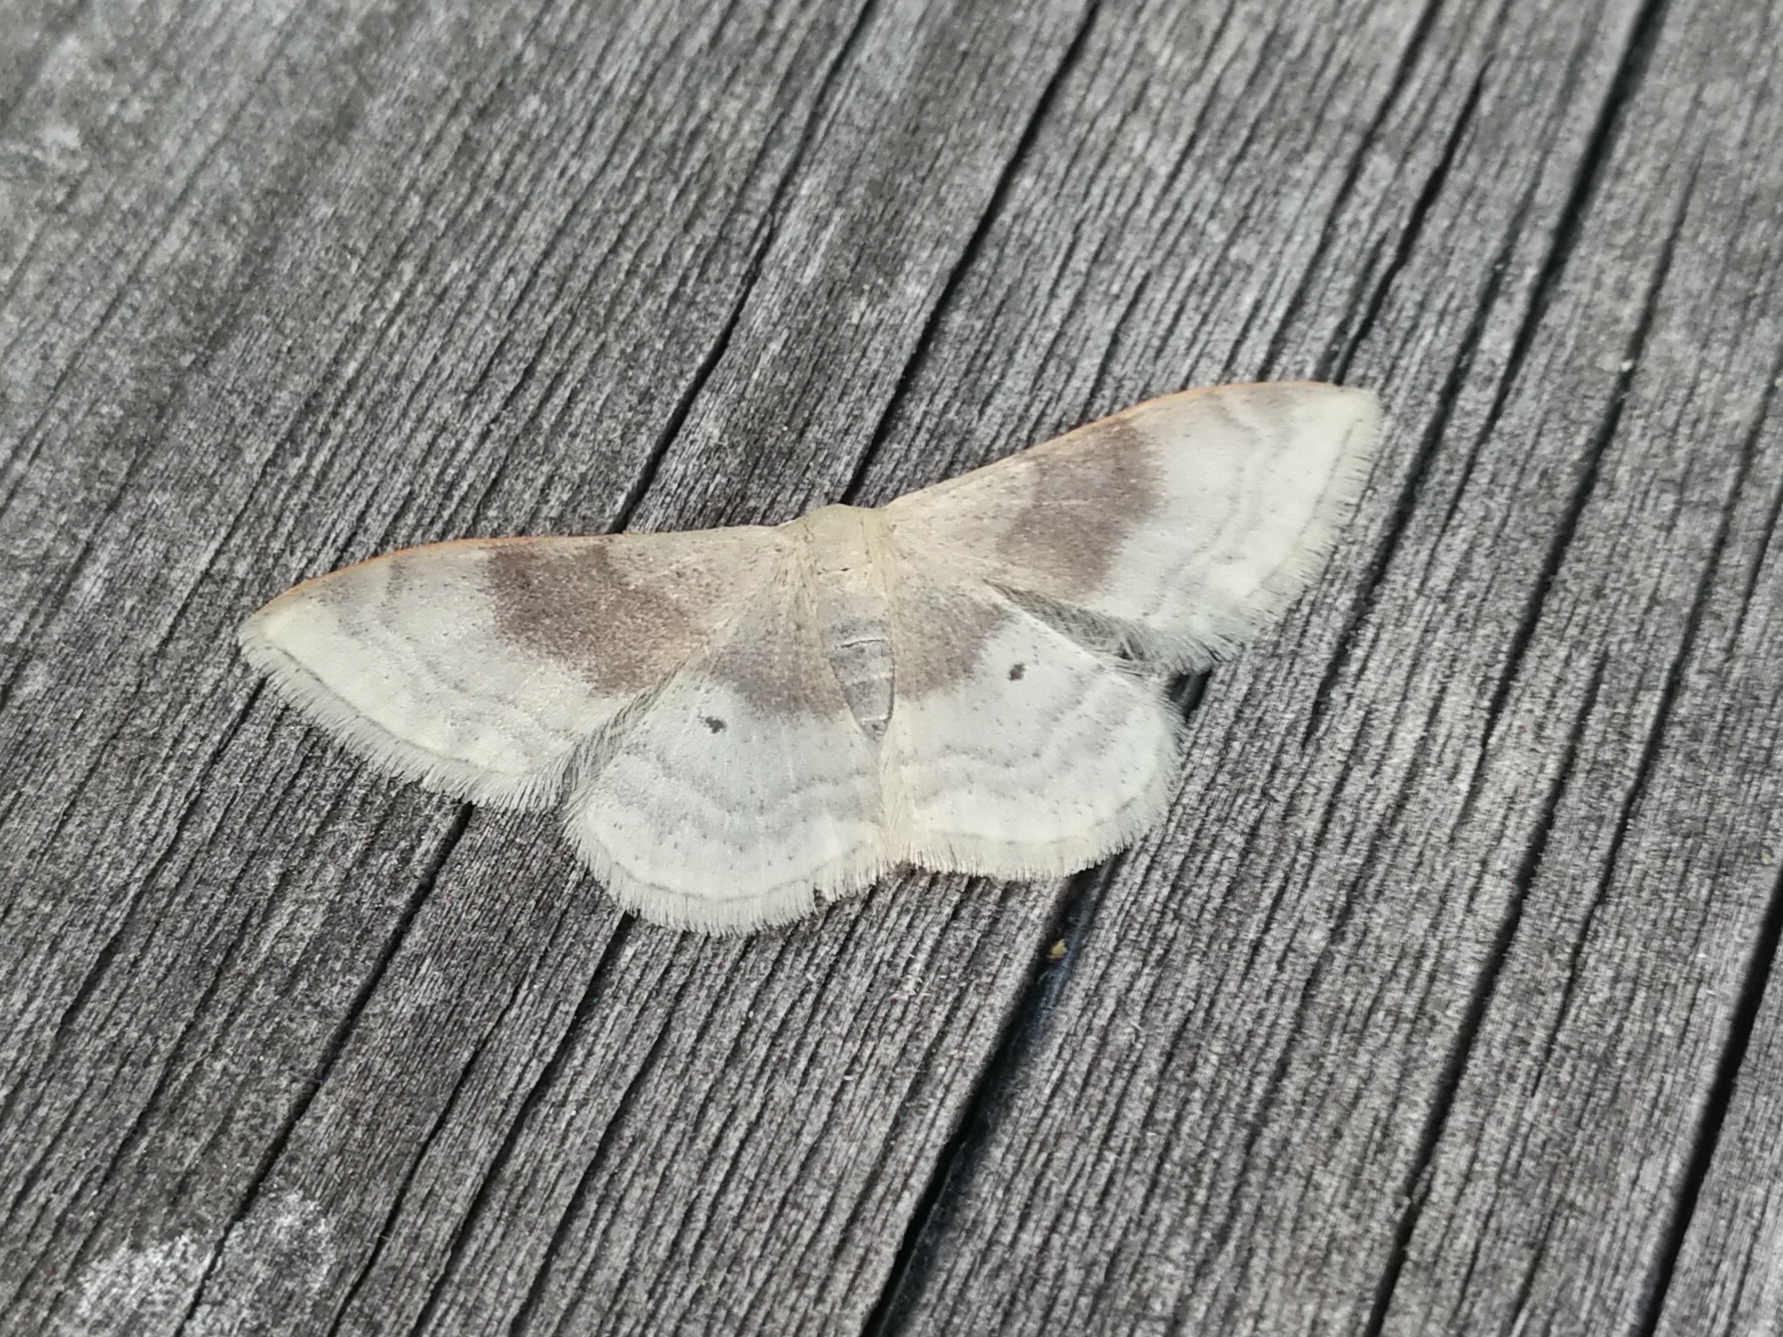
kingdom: Animalia
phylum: Arthropoda
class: Insecta
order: Lepidoptera
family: Geometridae
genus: Idaea
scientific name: Idaea degeneraria
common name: Portland ribbon wave
